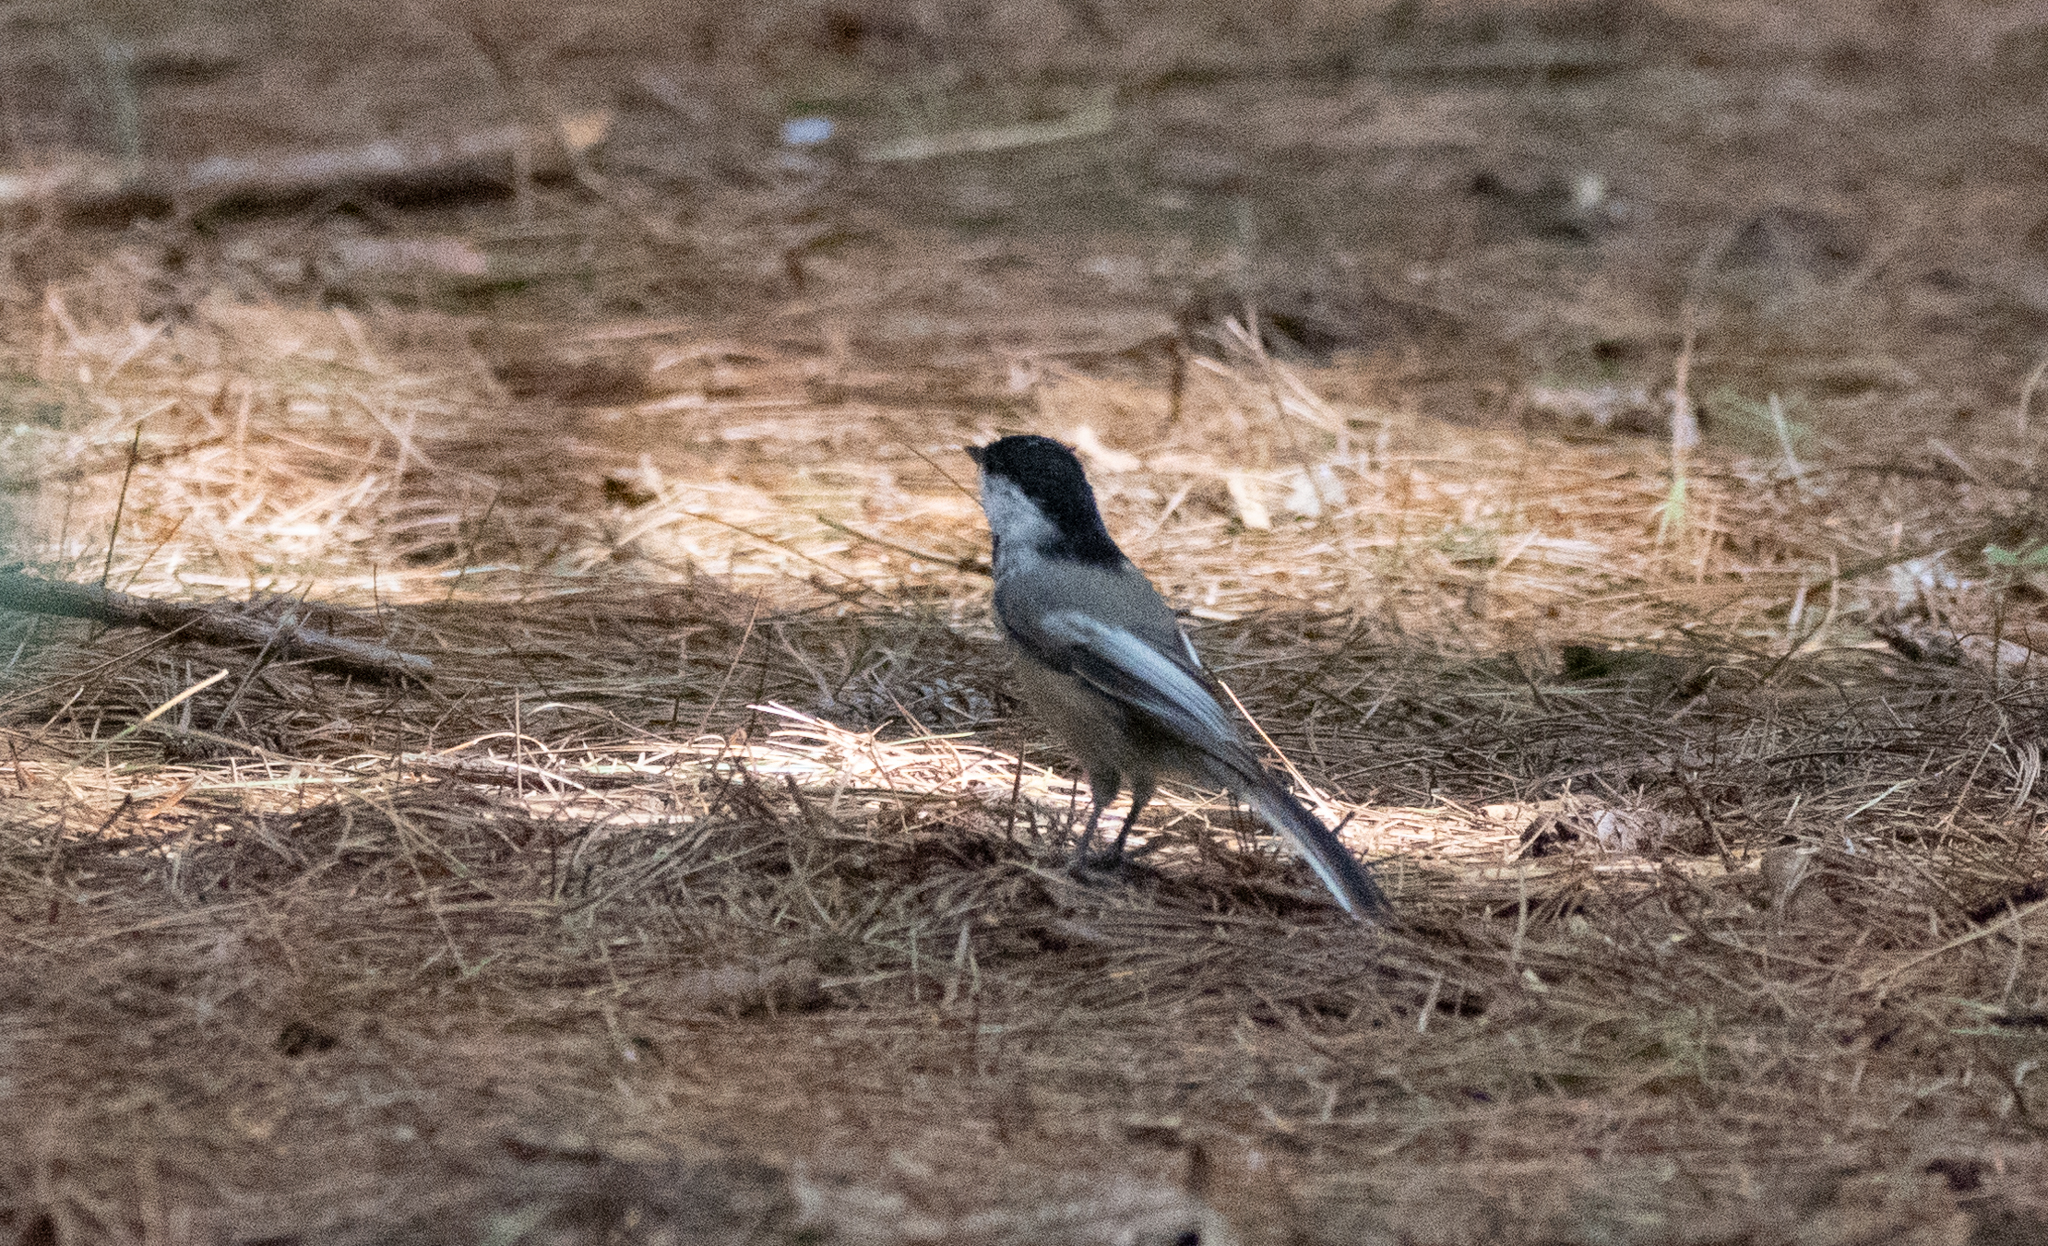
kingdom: Animalia
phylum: Chordata
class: Aves
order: Passeriformes
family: Paridae
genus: Poecile
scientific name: Poecile atricapillus
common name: Black-capped chickadee
